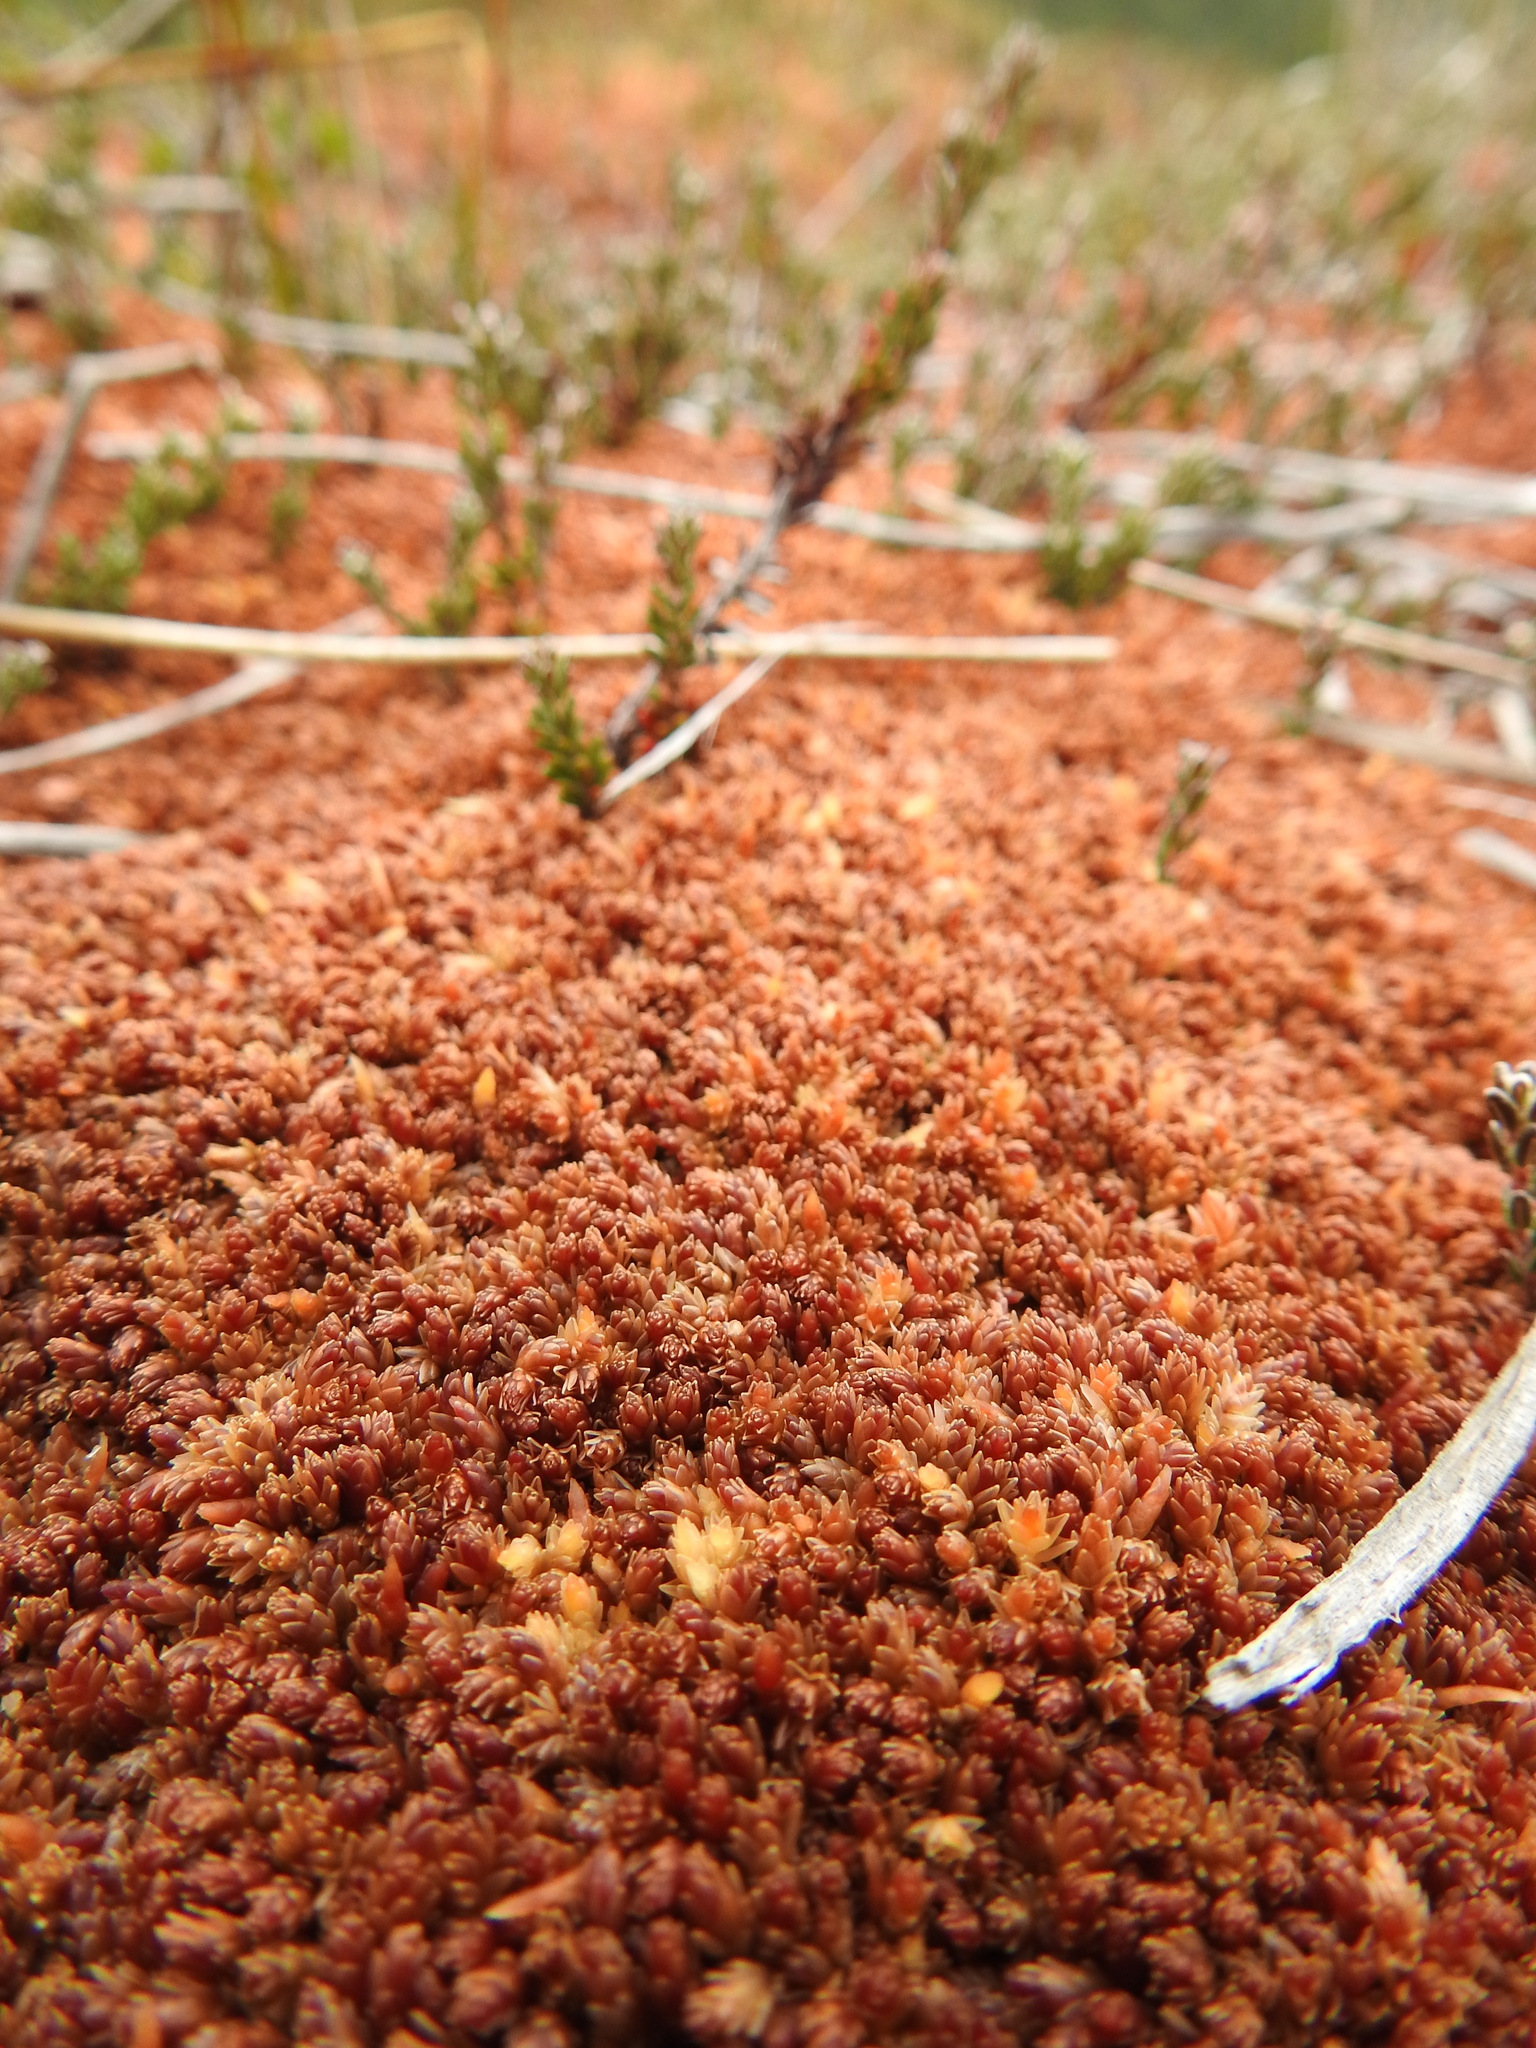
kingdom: Plantae
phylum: Bryophyta
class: Sphagnopsida
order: Sphagnales
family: Sphagnaceae
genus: Sphagnum
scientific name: Sphagnum magellanicum
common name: Magellan's peat moss
